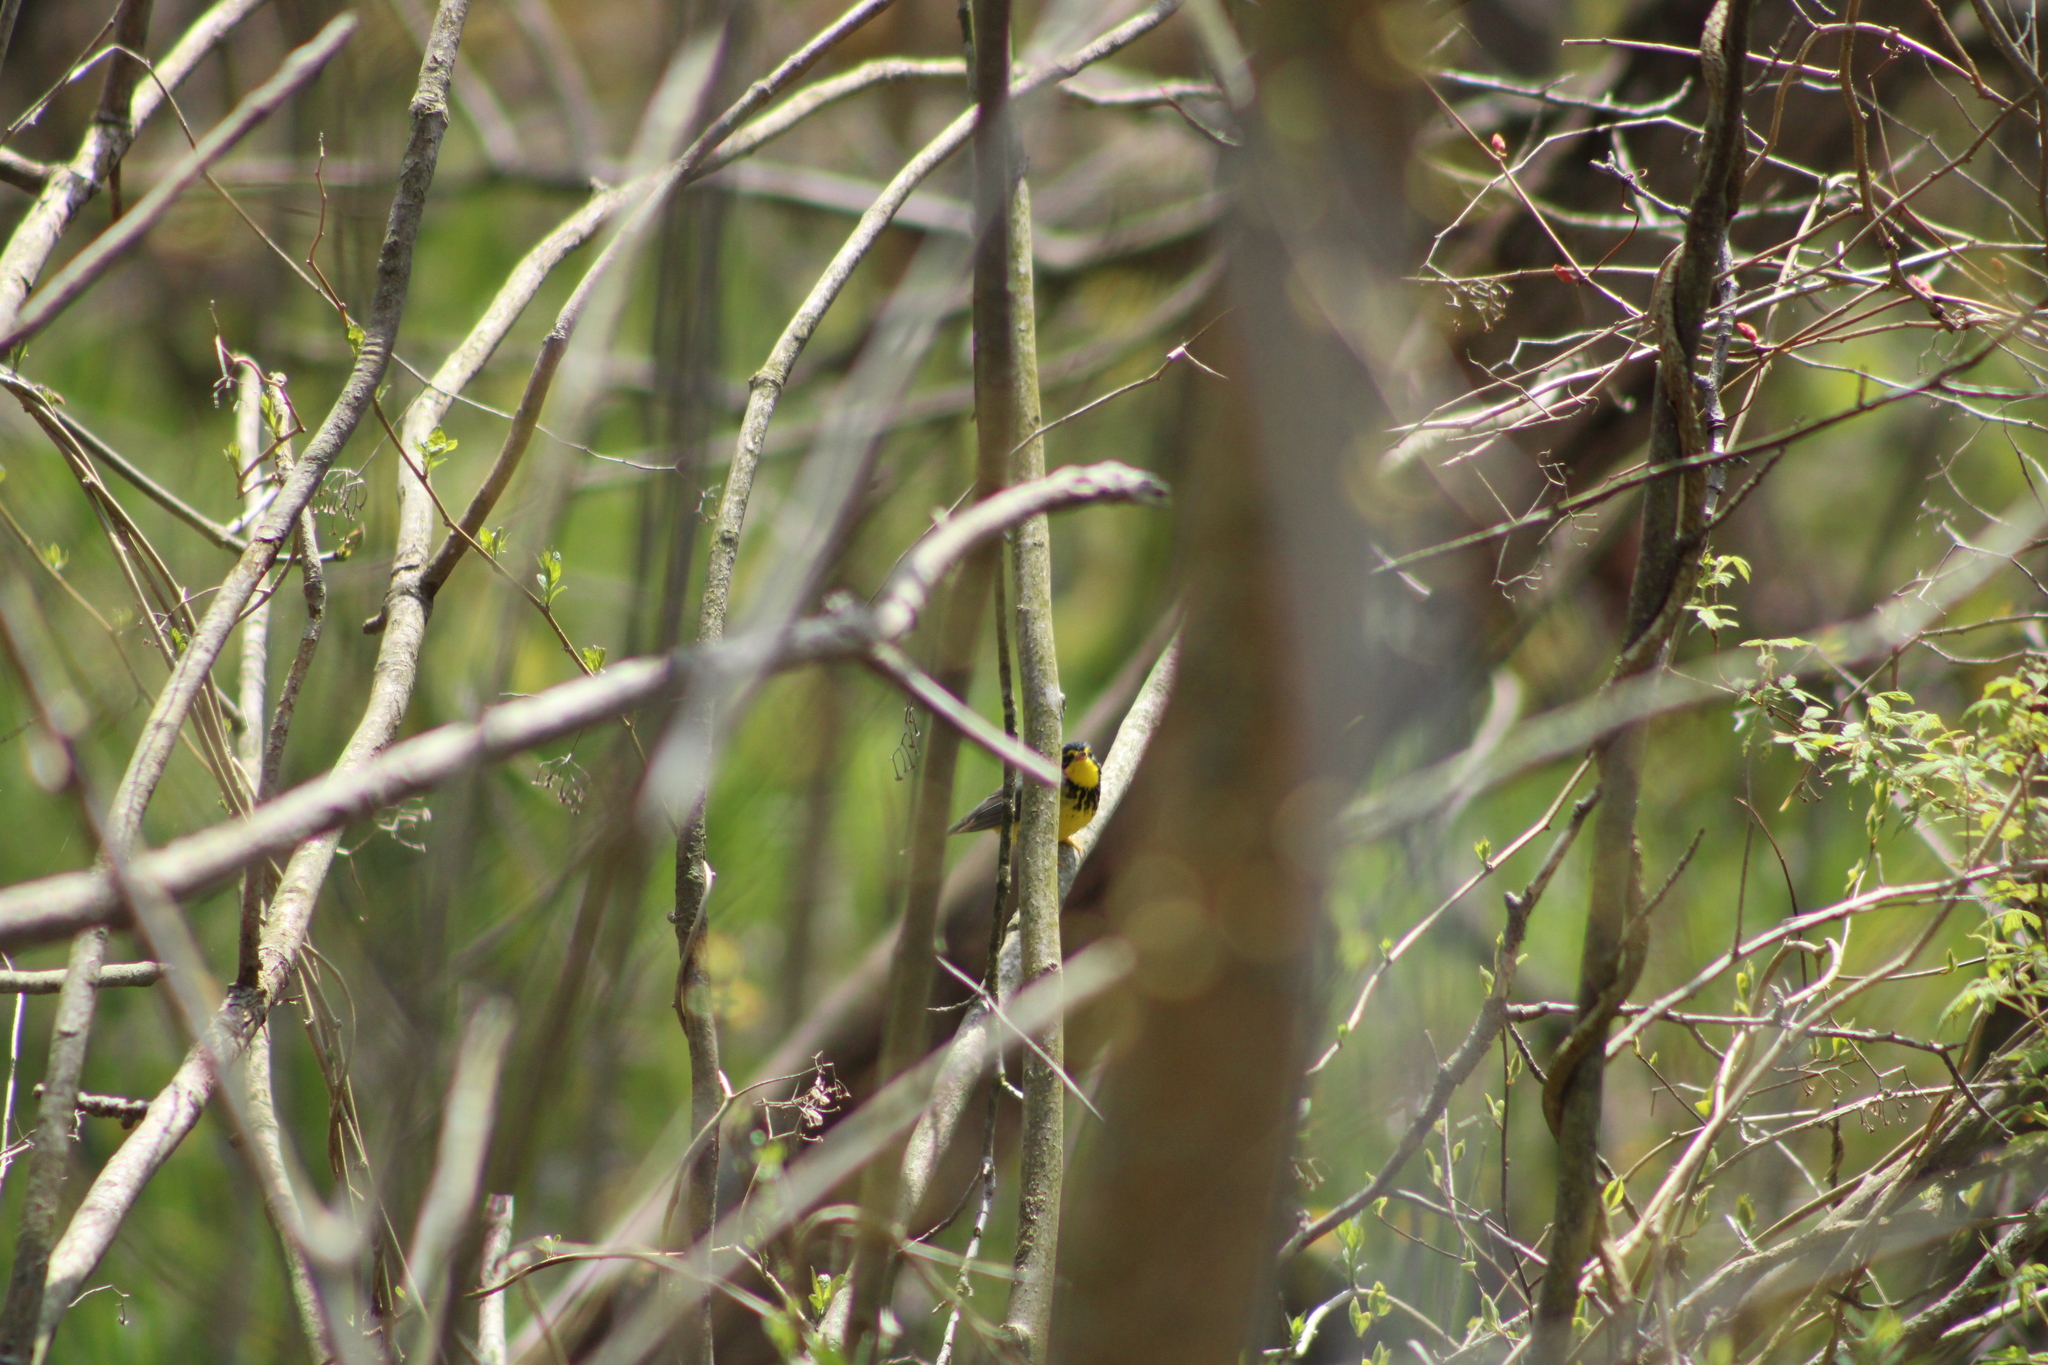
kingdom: Animalia
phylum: Chordata
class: Aves
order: Passeriformes
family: Parulidae
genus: Cardellina
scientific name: Cardellina canadensis
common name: Canada warbler
